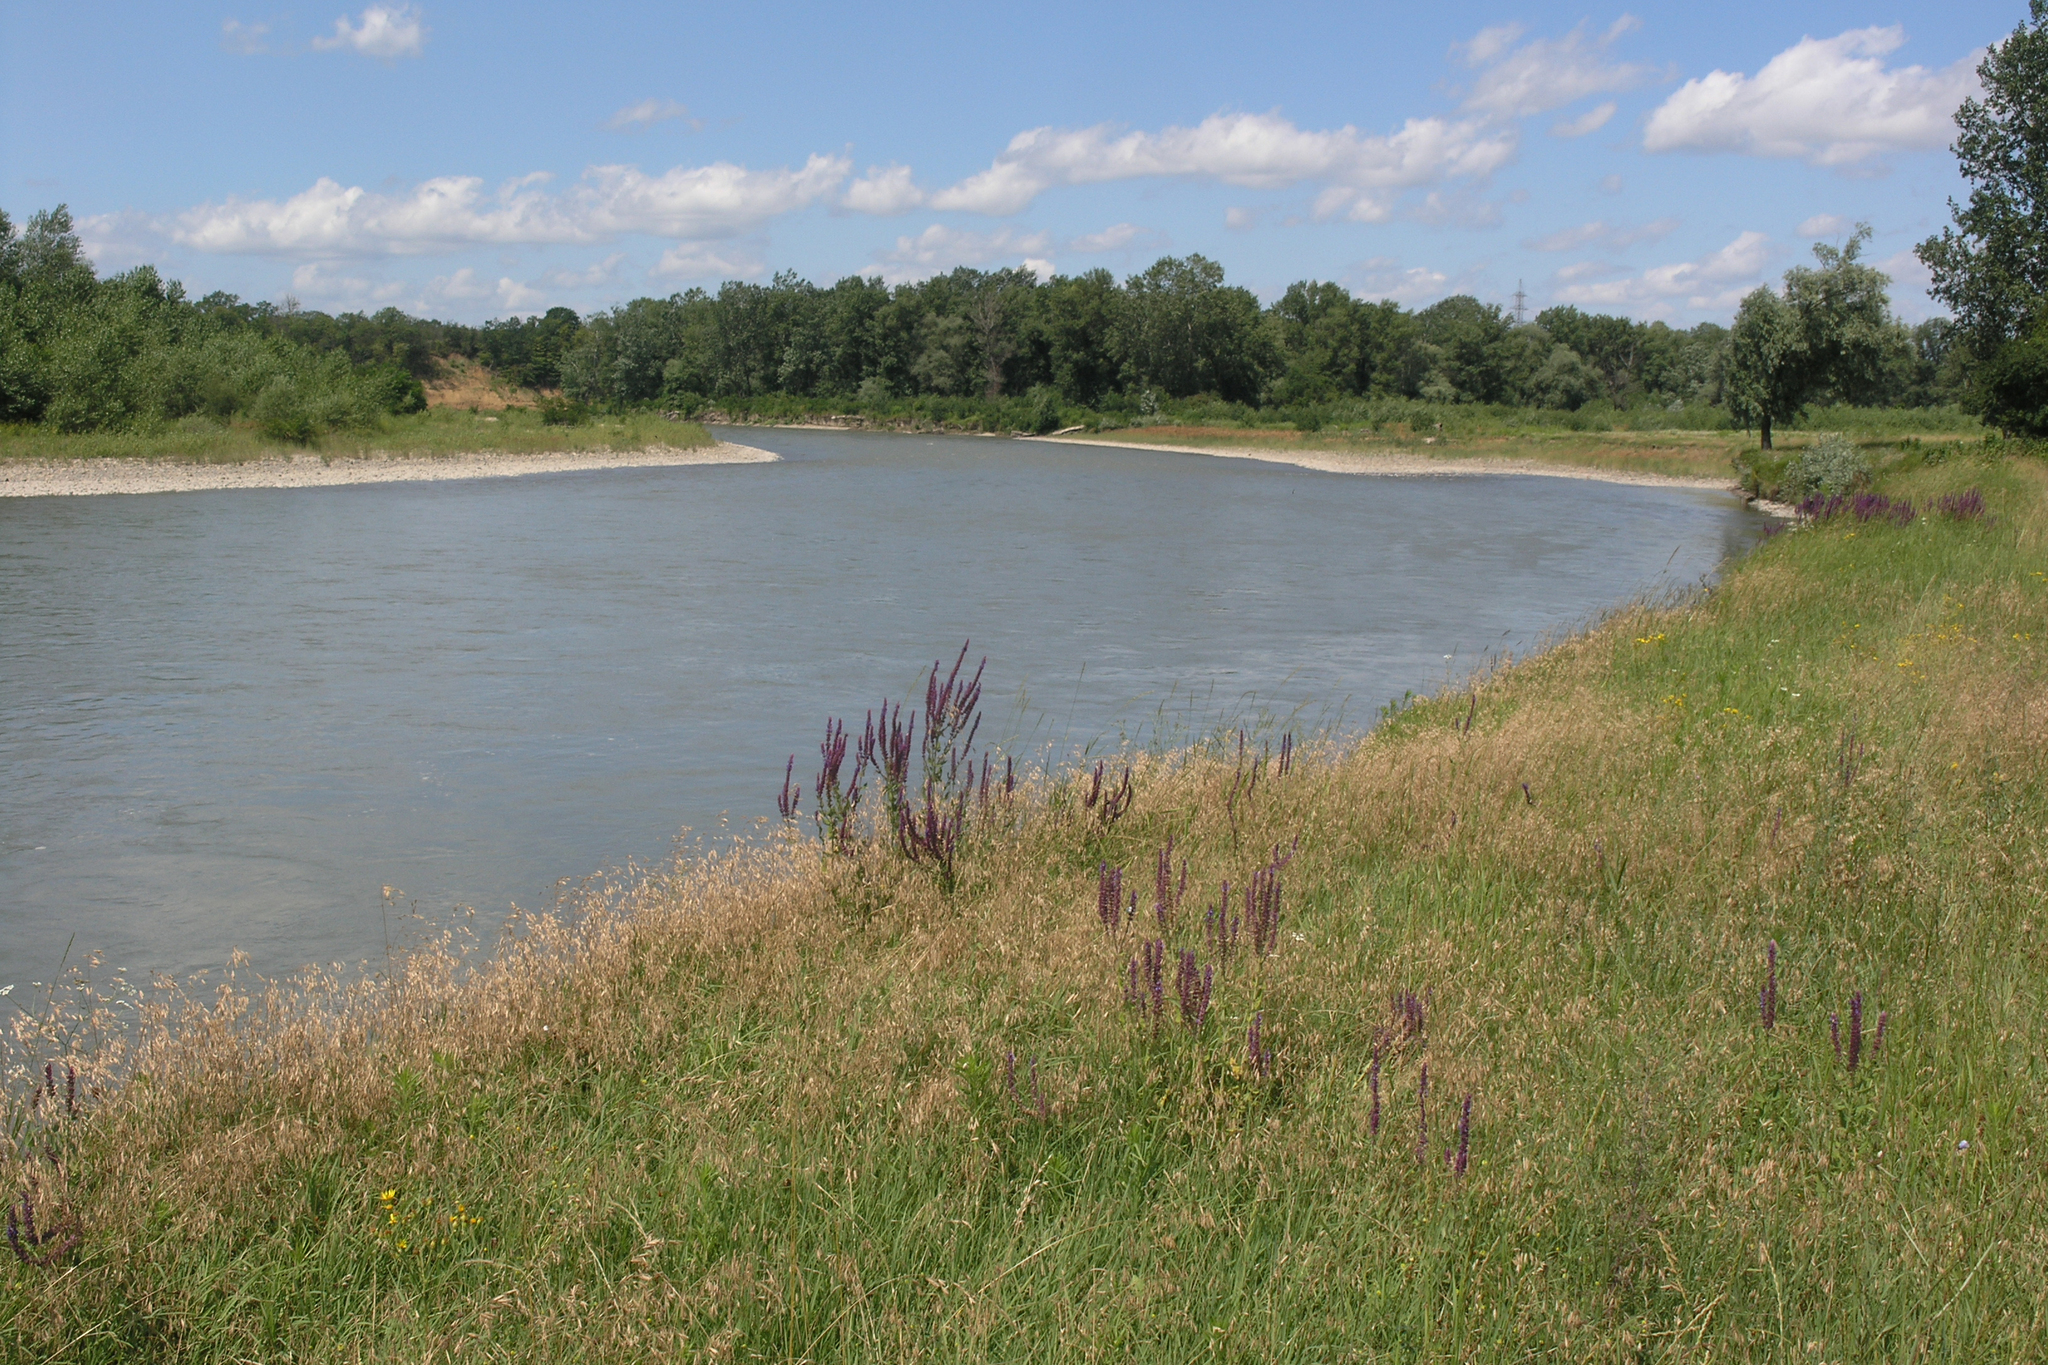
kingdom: Plantae
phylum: Tracheophyta
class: Magnoliopsida
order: Lamiales
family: Lamiaceae
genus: Salvia
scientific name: Salvia nemorosa
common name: Balkan clary
